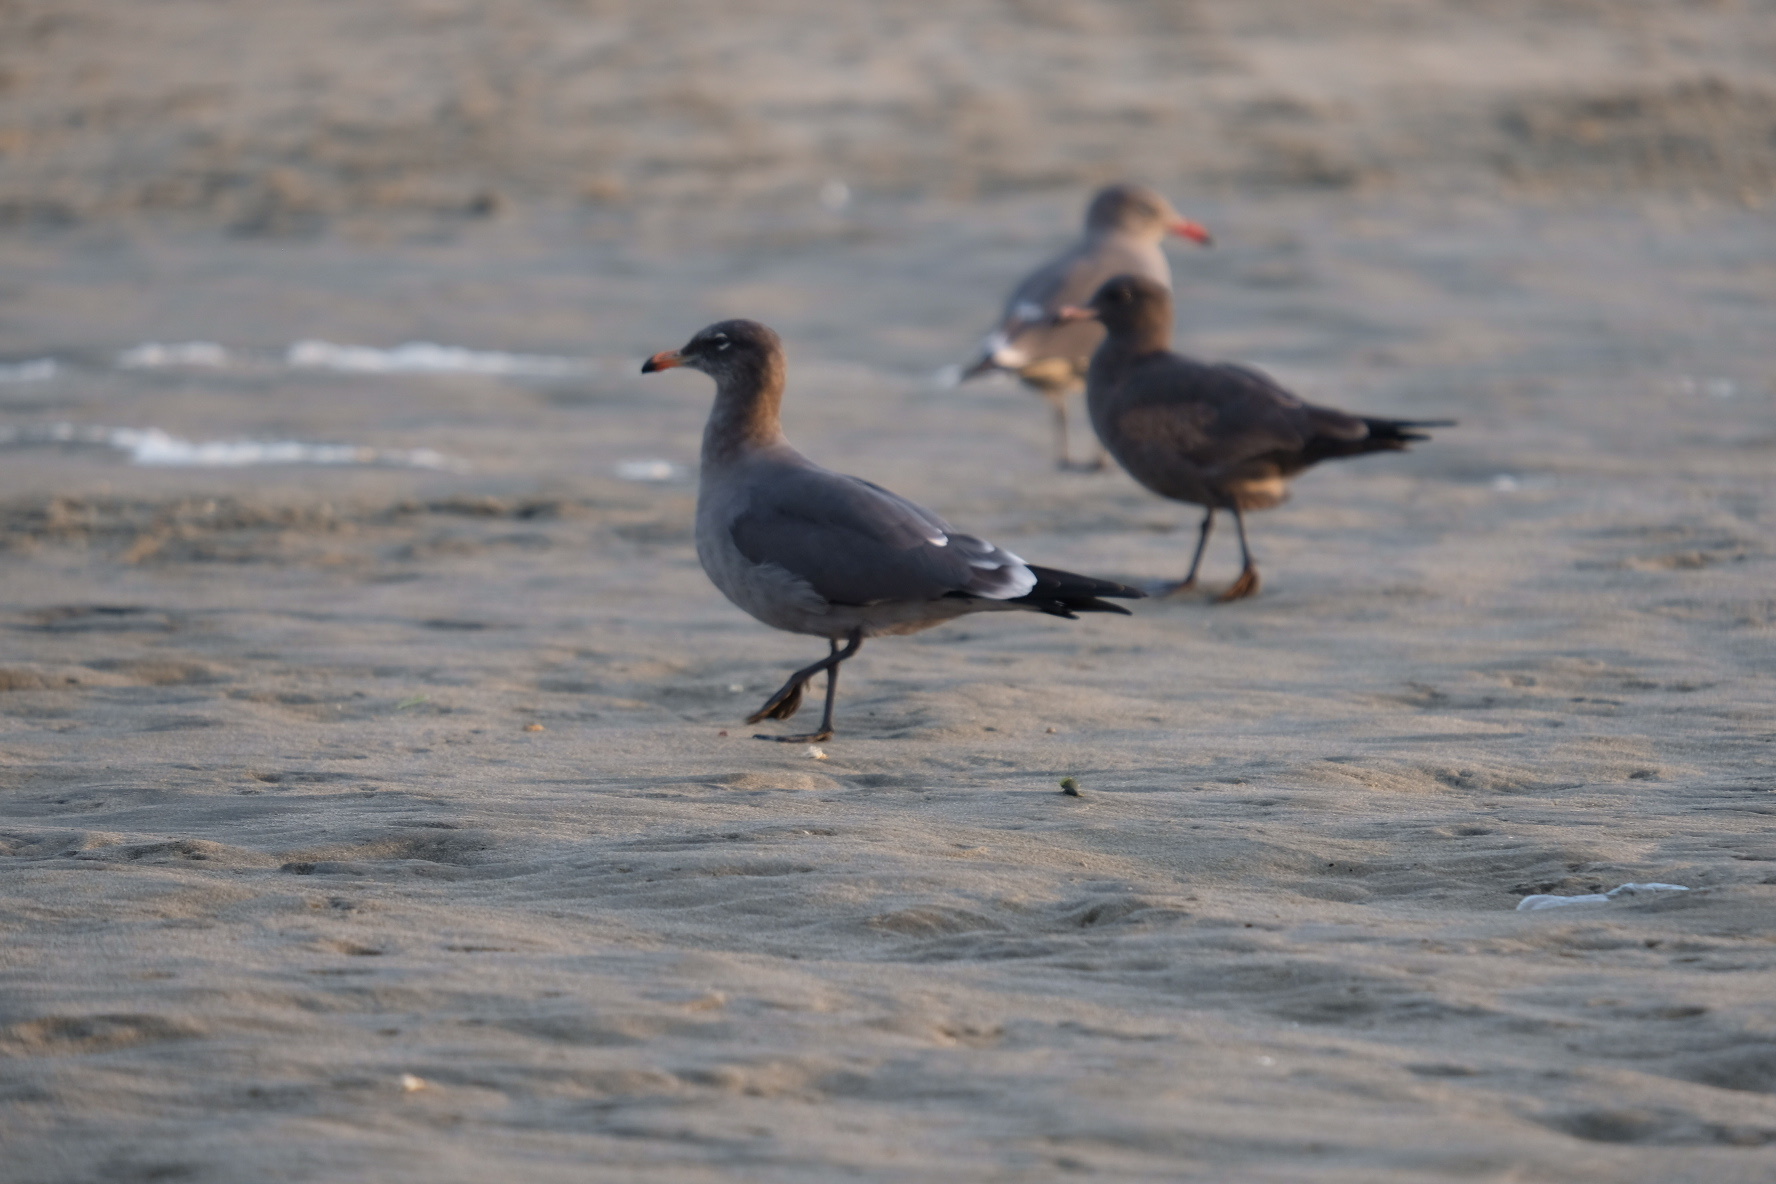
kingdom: Animalia
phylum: Chordata
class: Aves
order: Charadriiformes
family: Laridae
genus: Larus
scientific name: Larus heermanni
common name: Heermann's gull
